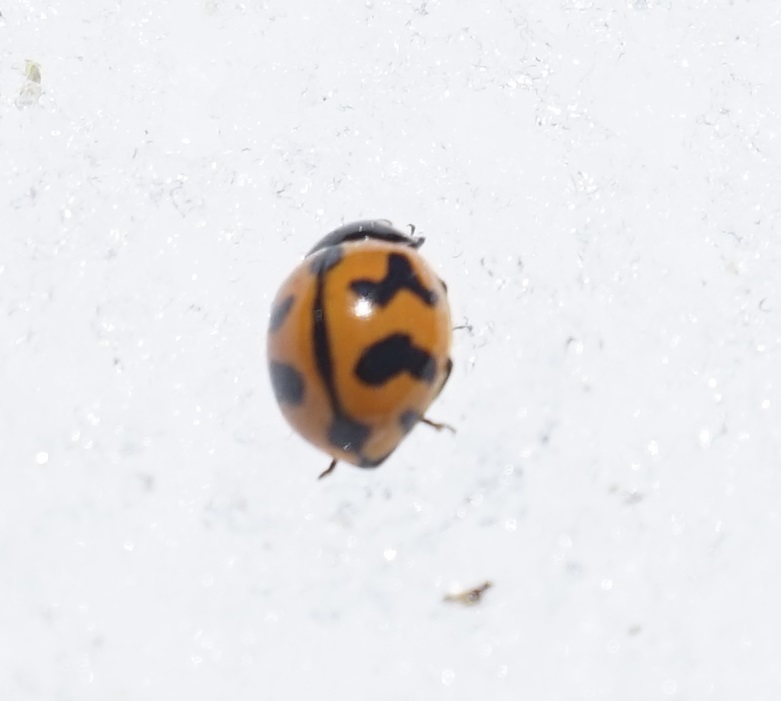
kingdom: Animalia
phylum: Arthropoda
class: Insecta
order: Coleoptera
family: Coccinellidae
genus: Coccinella
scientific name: Coccinella transversalis
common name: Transverse lady beetle
